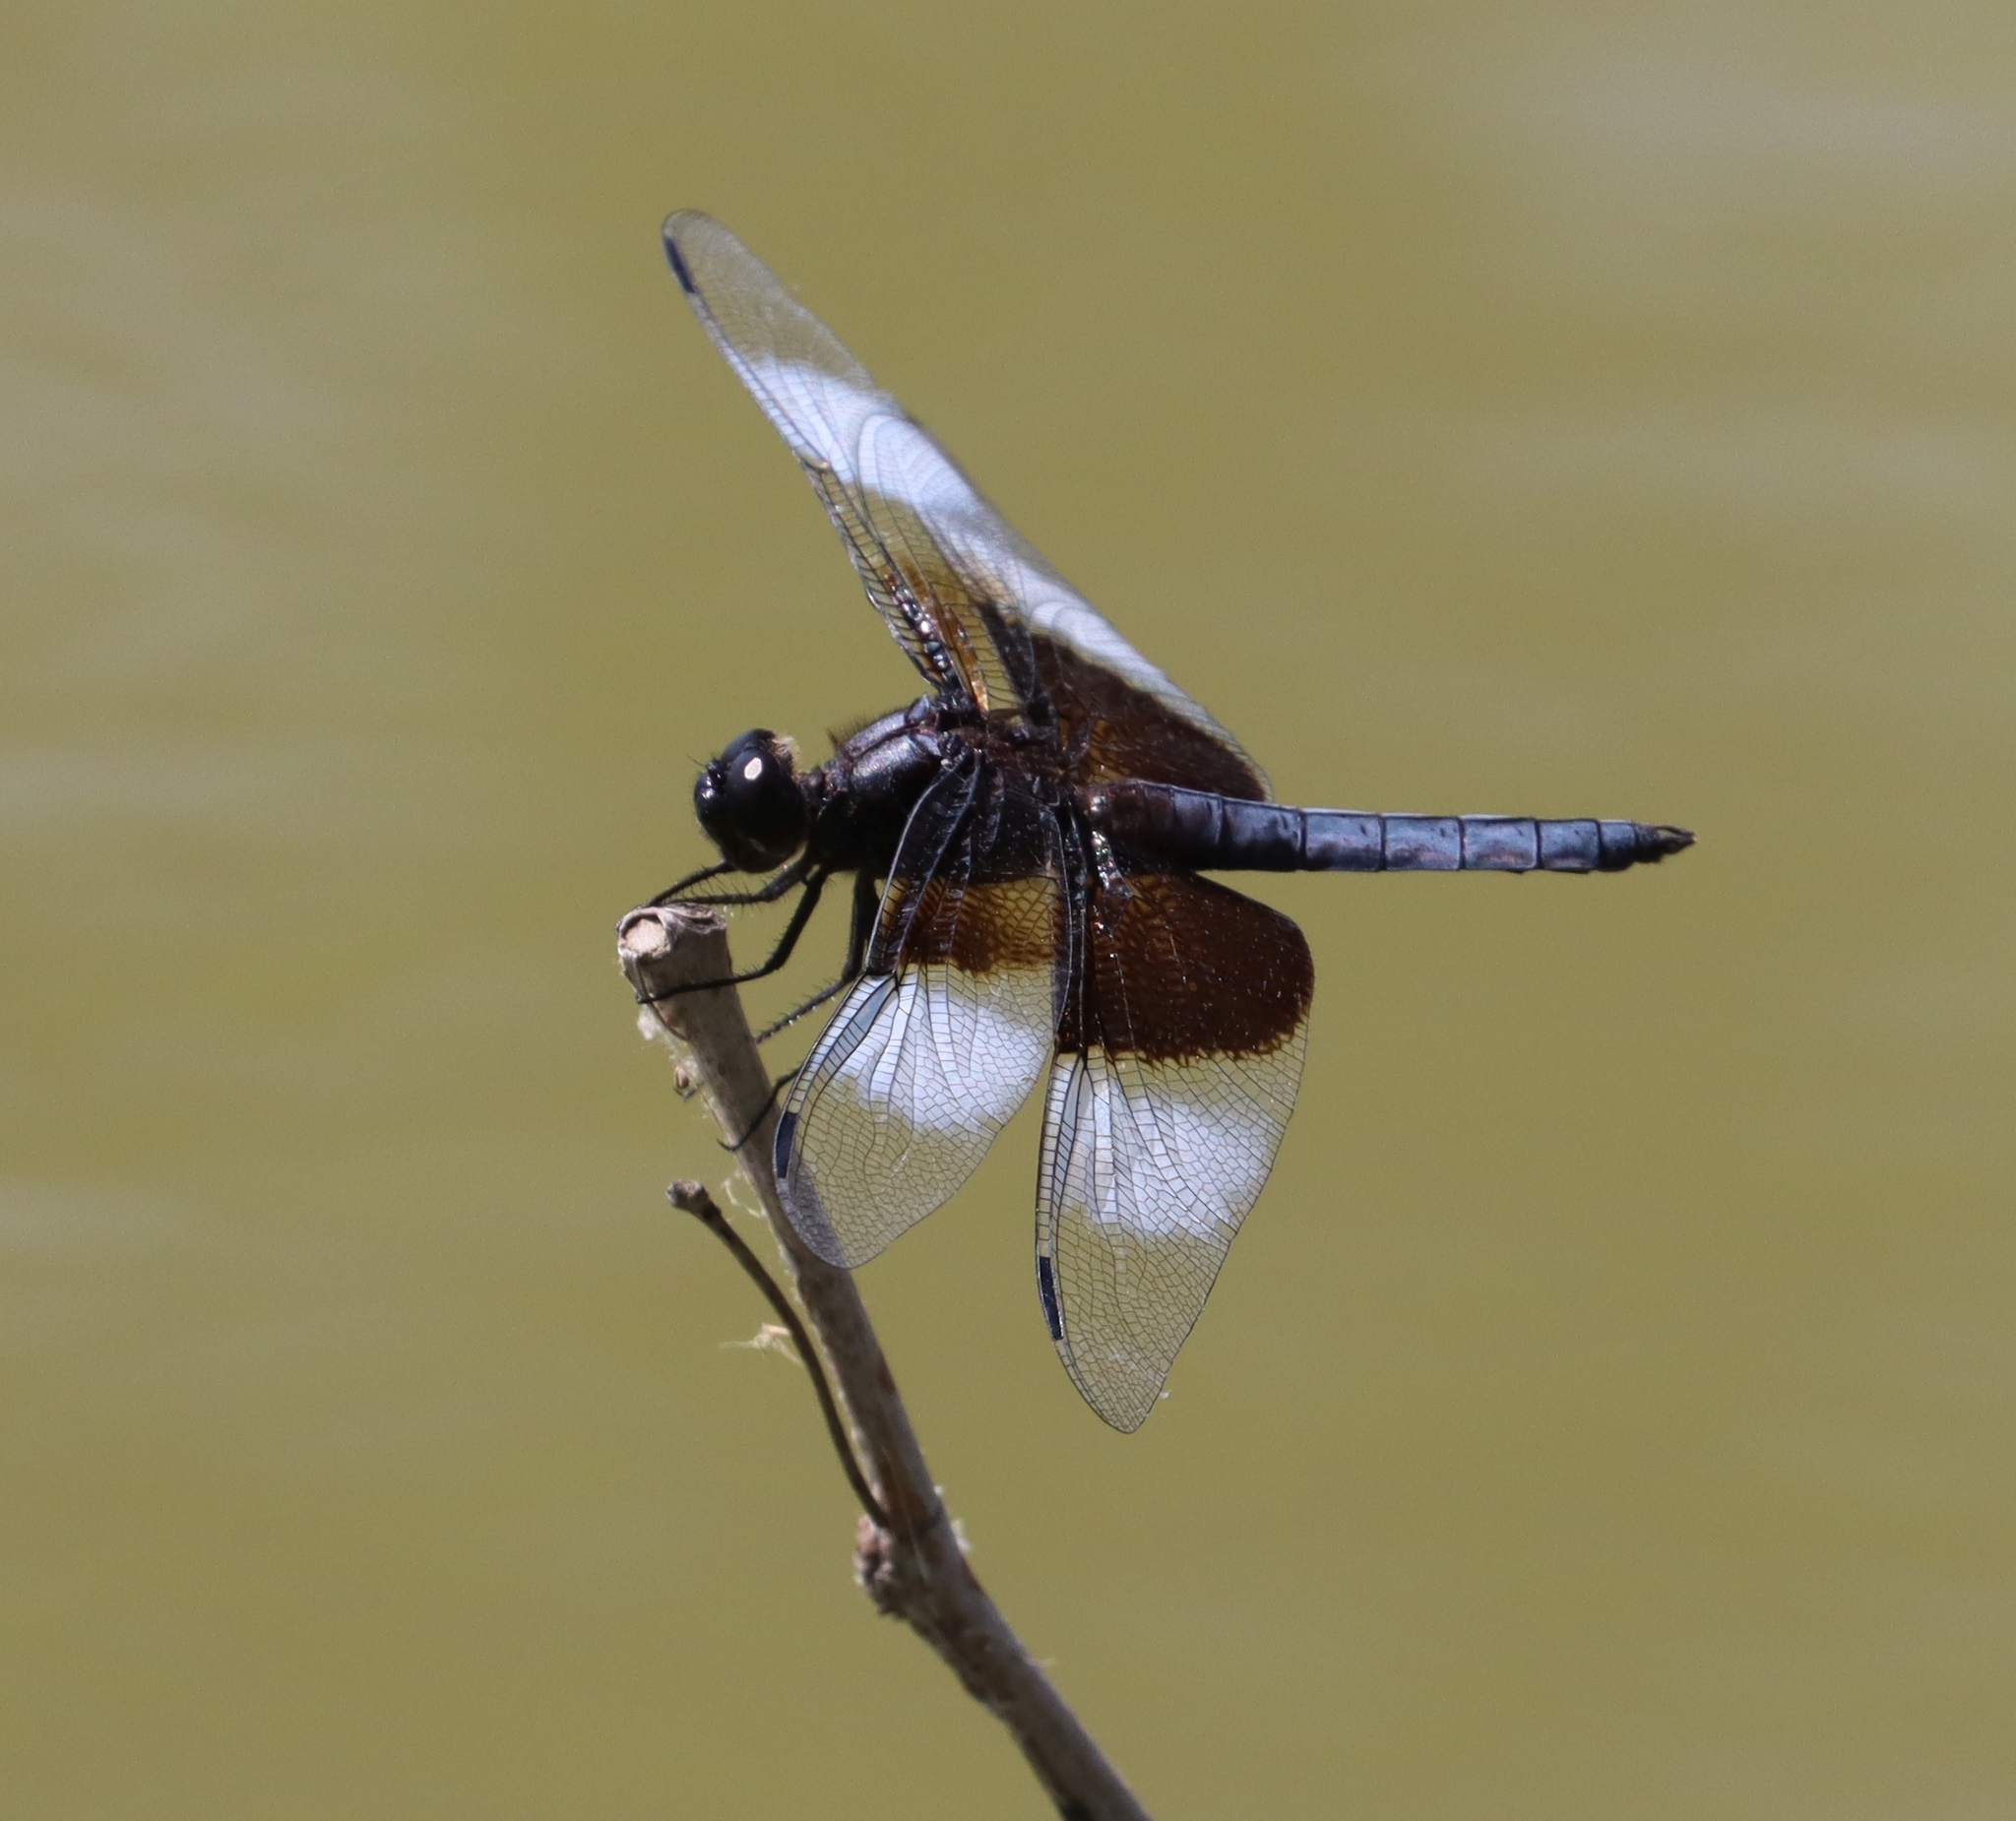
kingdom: Animalia
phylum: Arthropoda
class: Insecta
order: Odonata
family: Libellulidae
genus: Libellula
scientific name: Libellula luctuosa
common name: Widow skimmer
